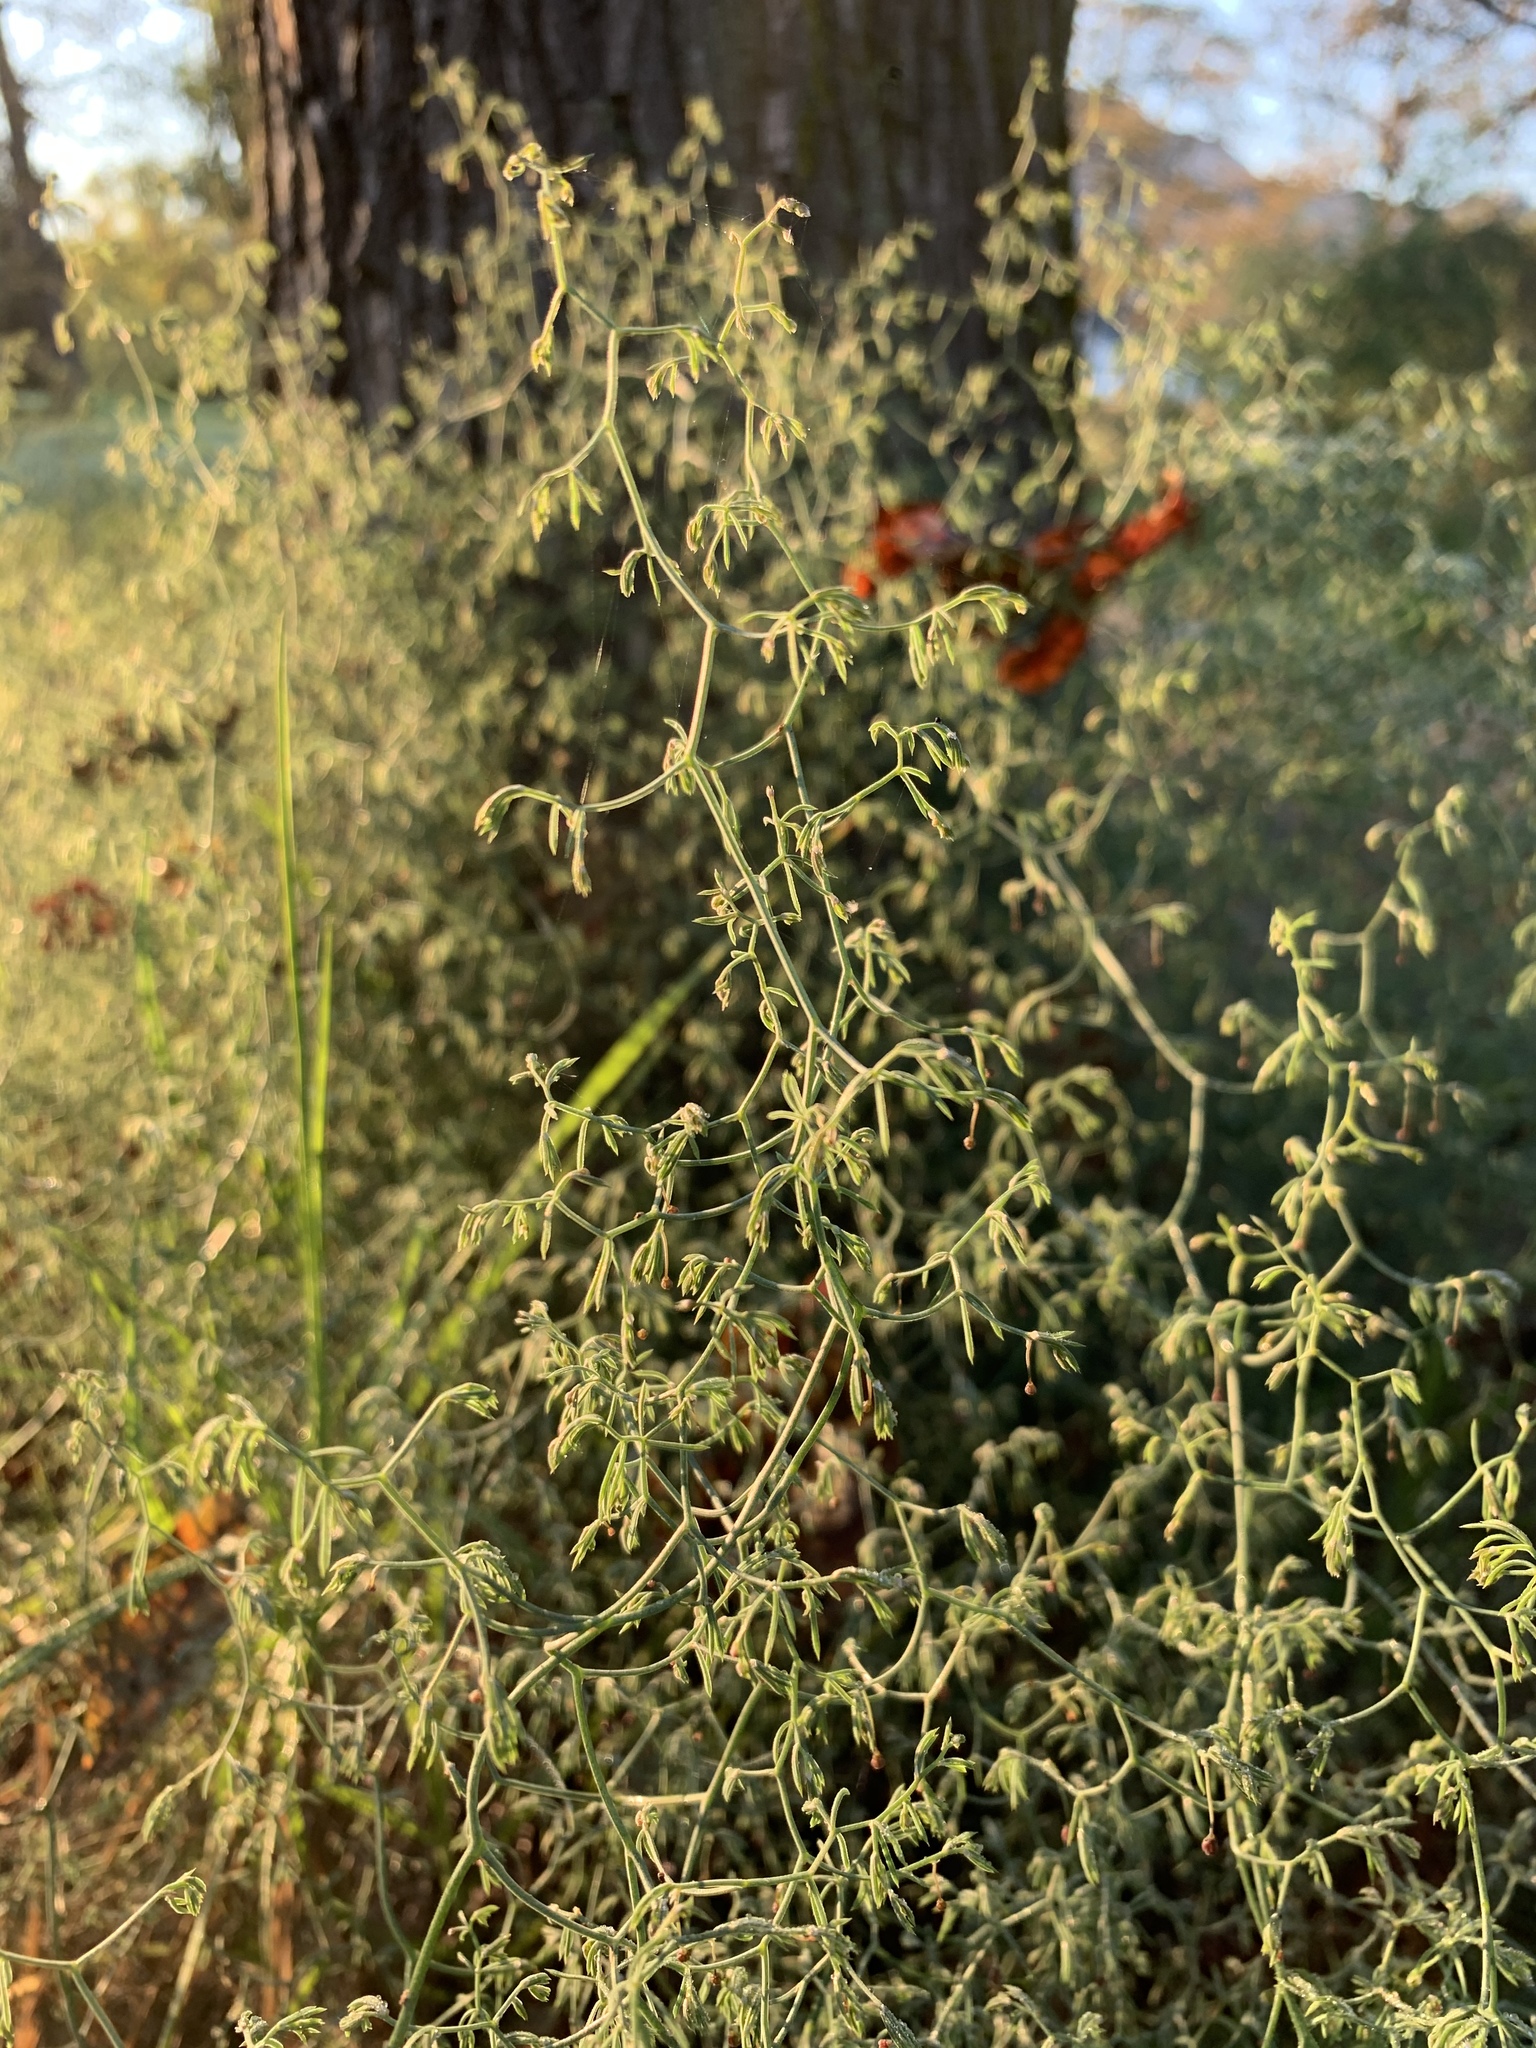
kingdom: Plantae
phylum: Tracheophyta
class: Liliopsida
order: Asparagales
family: Asparagaceae
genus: Asparagus
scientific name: Asparagus declinatus
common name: Bridal-creeper
